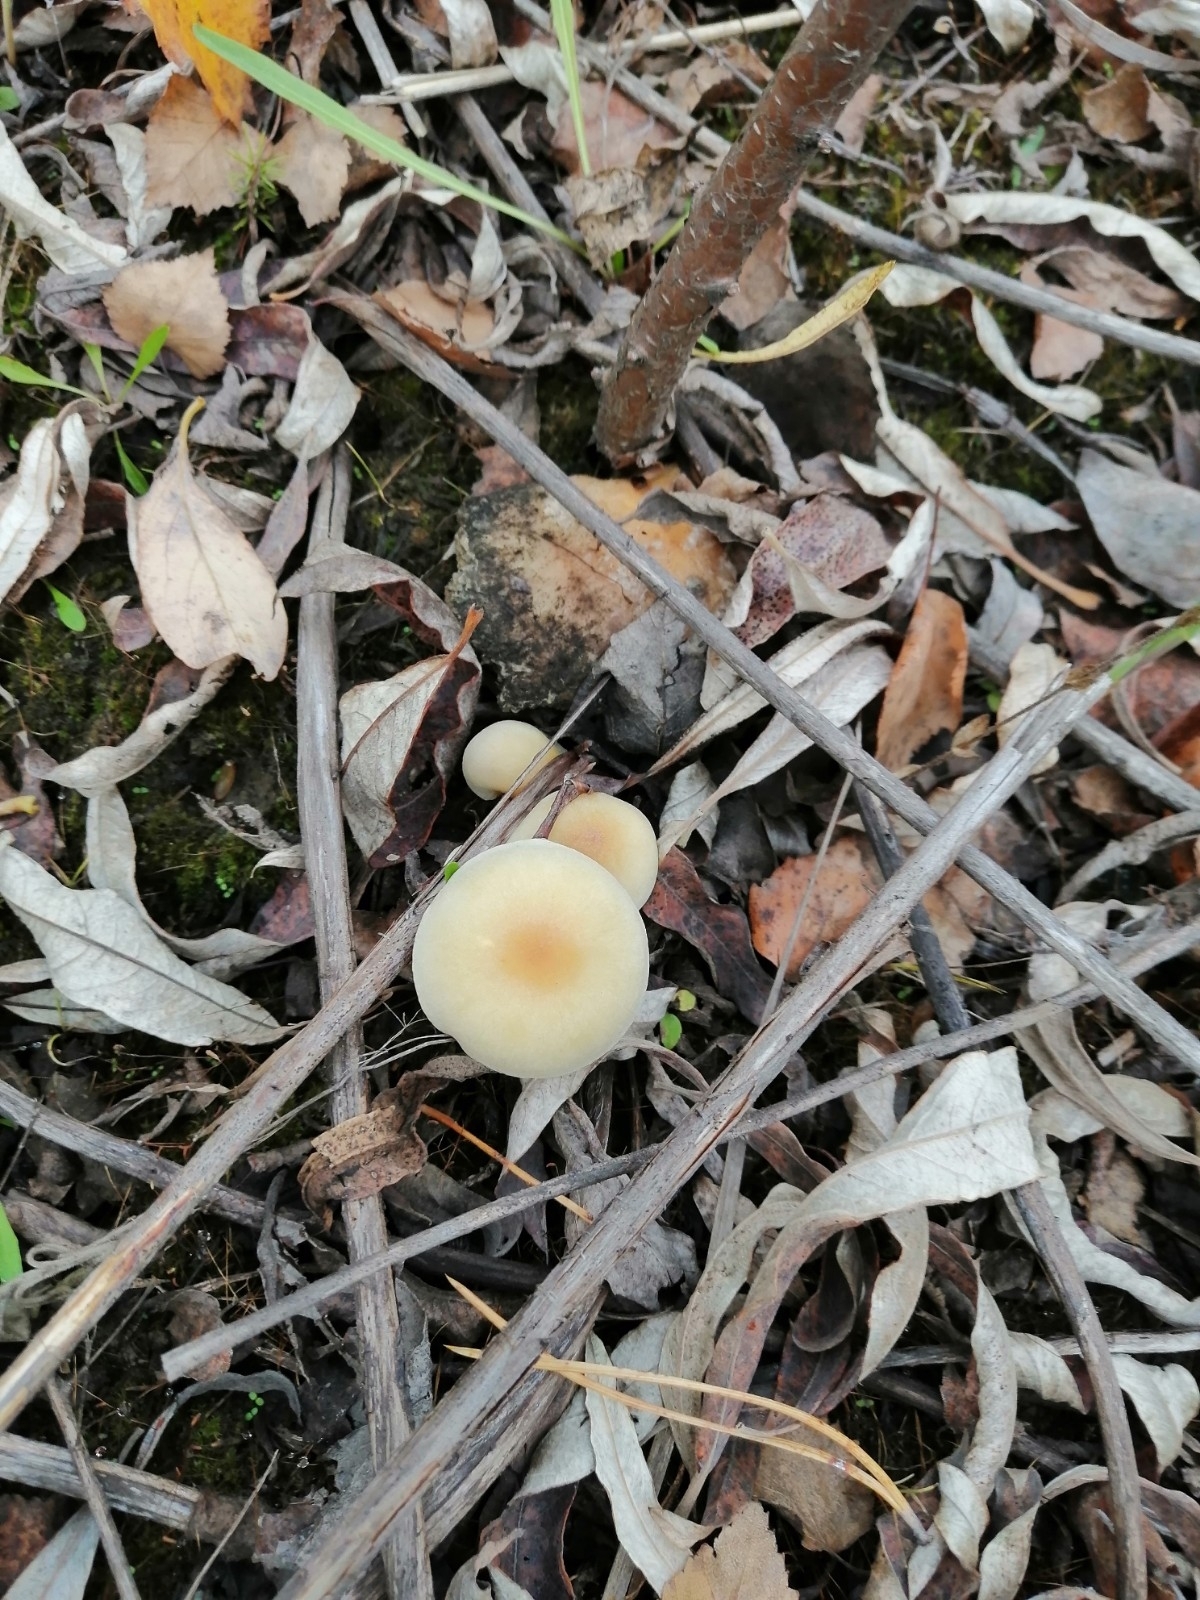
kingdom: Fungi
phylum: Basidiomycota
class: Agaricomycetes
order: Agaricales
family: Strophariaceae
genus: Hypholoma
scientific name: Hypholoma capnoides
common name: Conifer tuft
